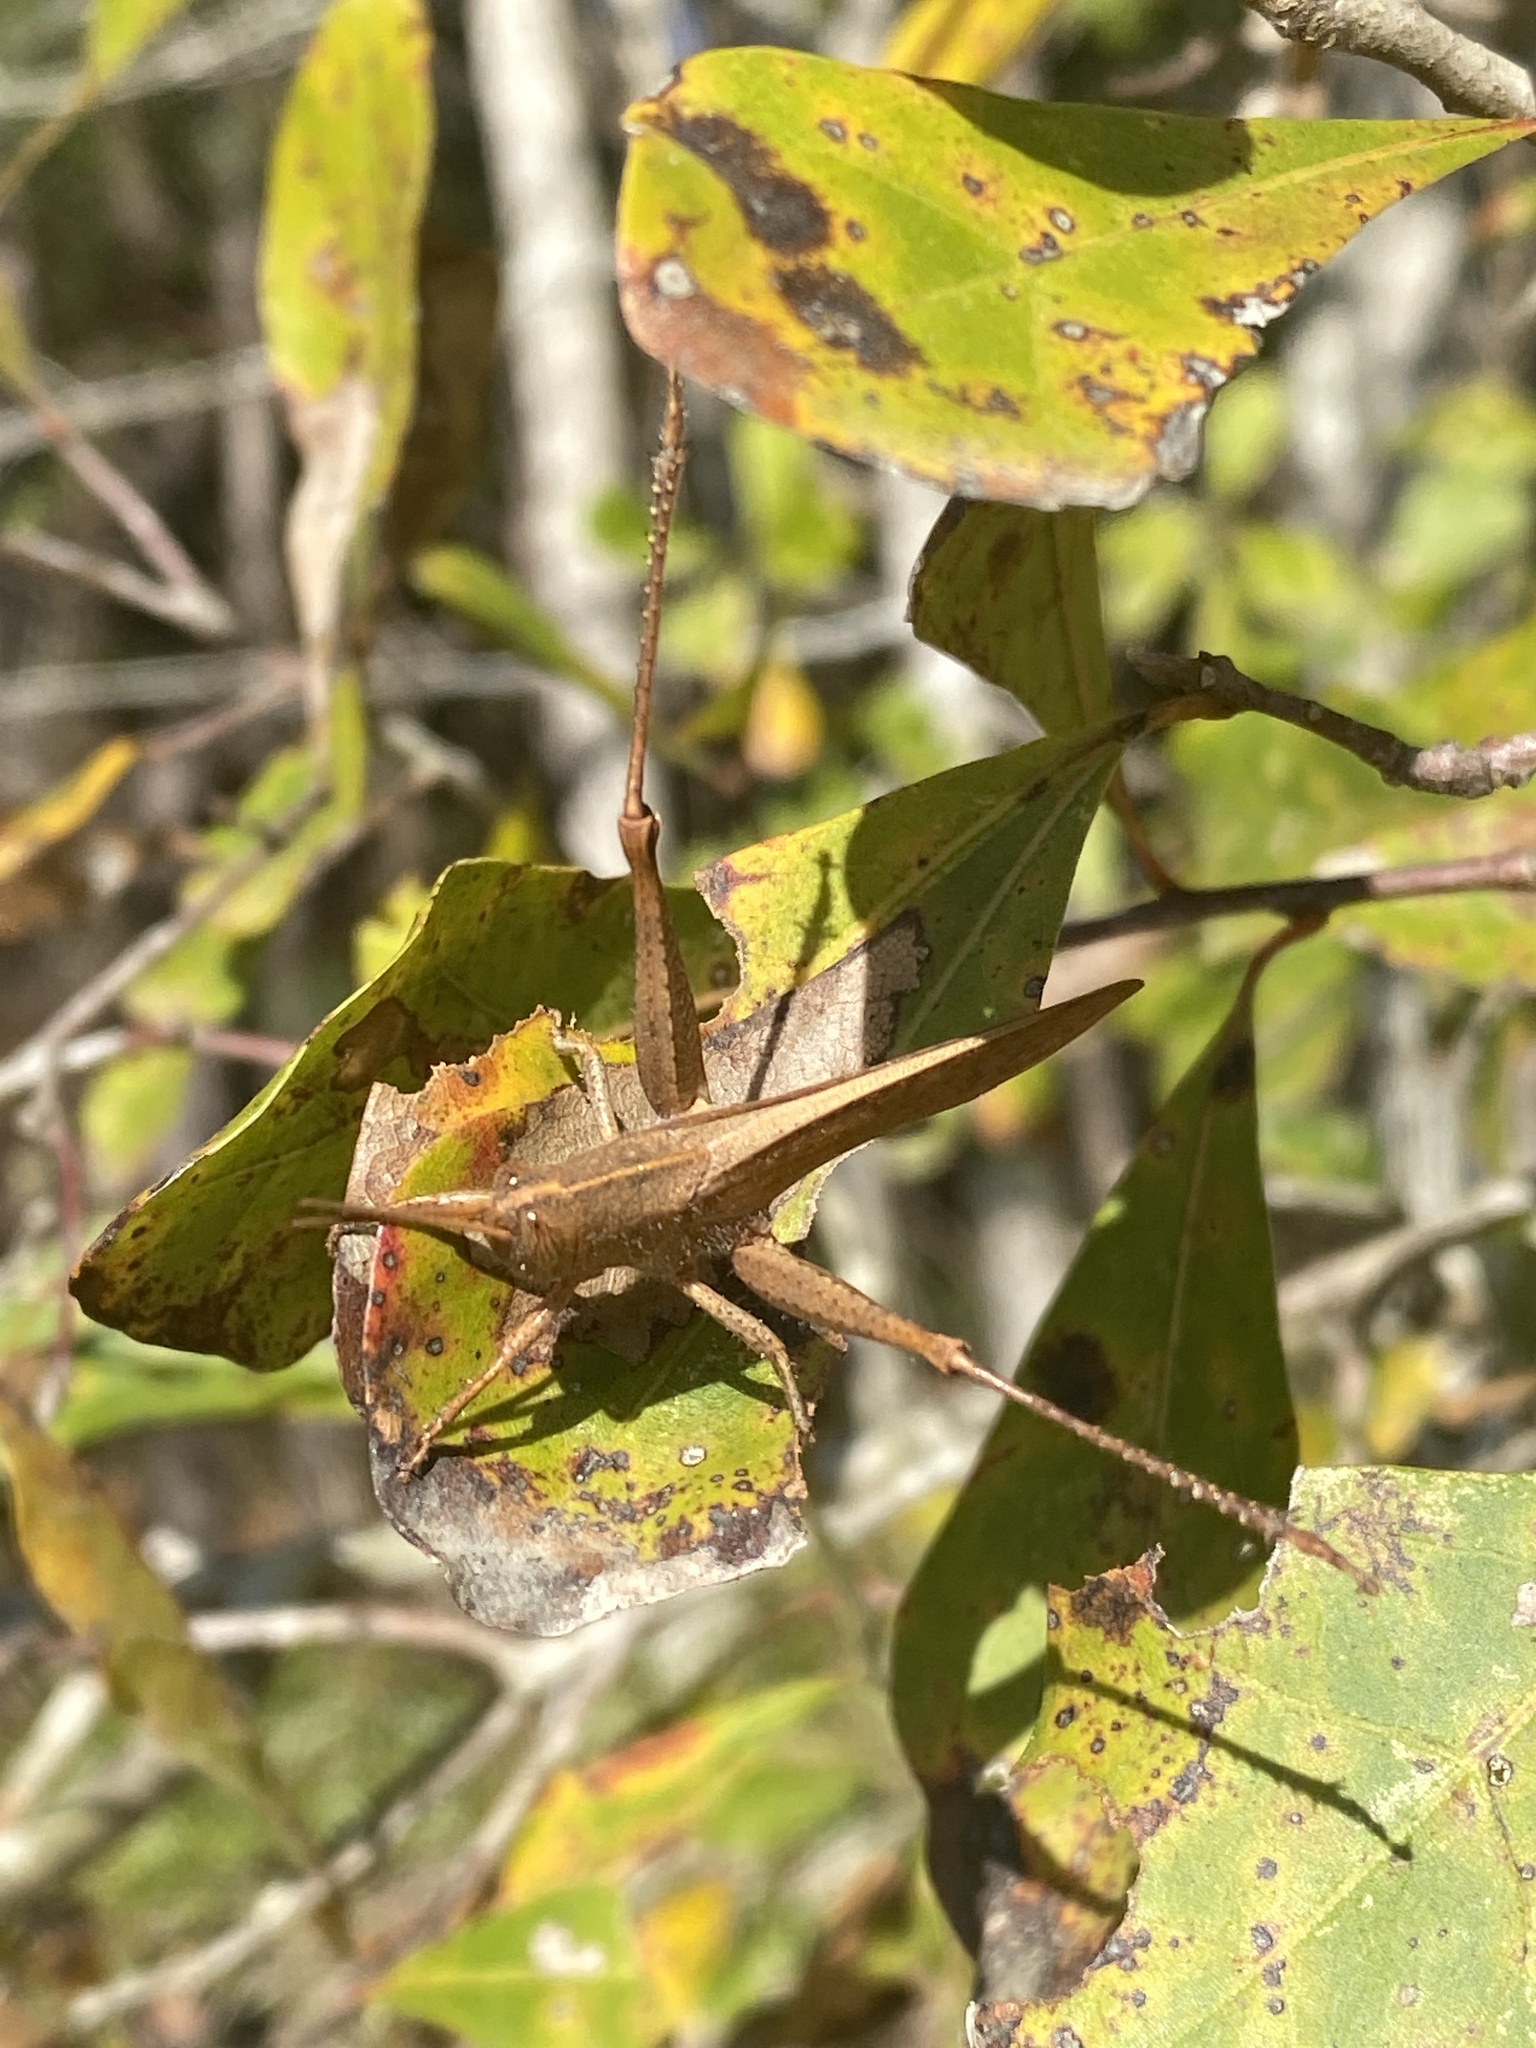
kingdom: Animalia
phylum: Arthropoda
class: Insecta
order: Orthoptera
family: Acrididae
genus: Schistocerca
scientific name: Schistocerca damnifica
